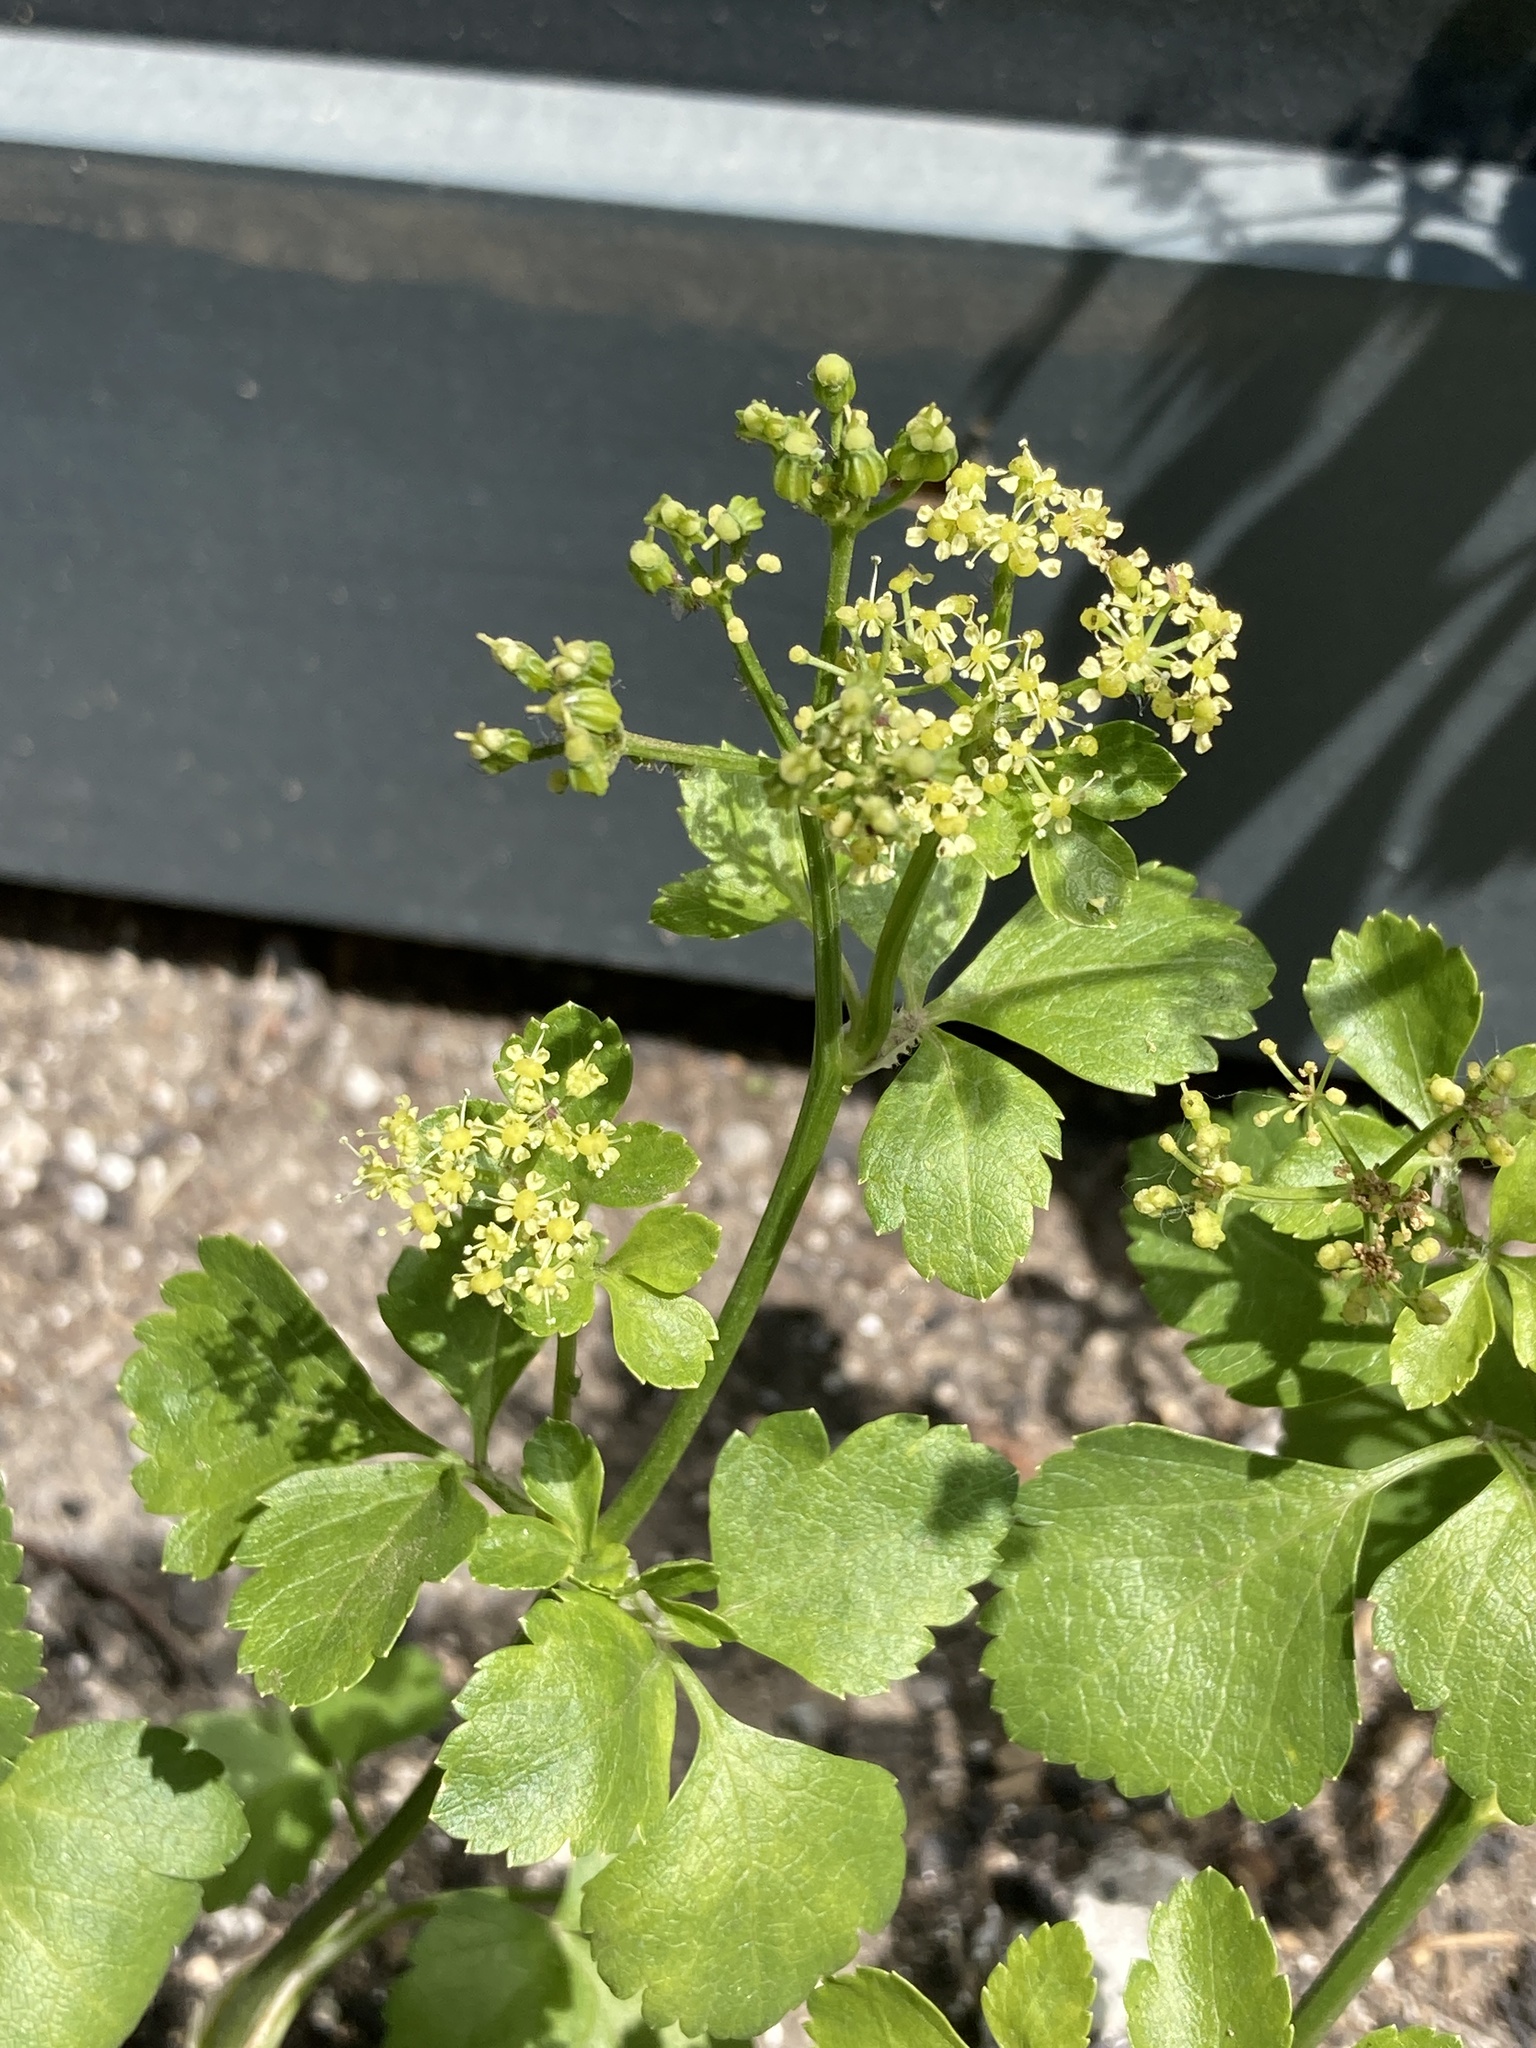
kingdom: Plantae
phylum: Tracheophyta
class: Magnoliopsida
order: Apiales
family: Apiaceae
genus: Smyrnium
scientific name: Smyrnium olusatrum
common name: Alexanders
